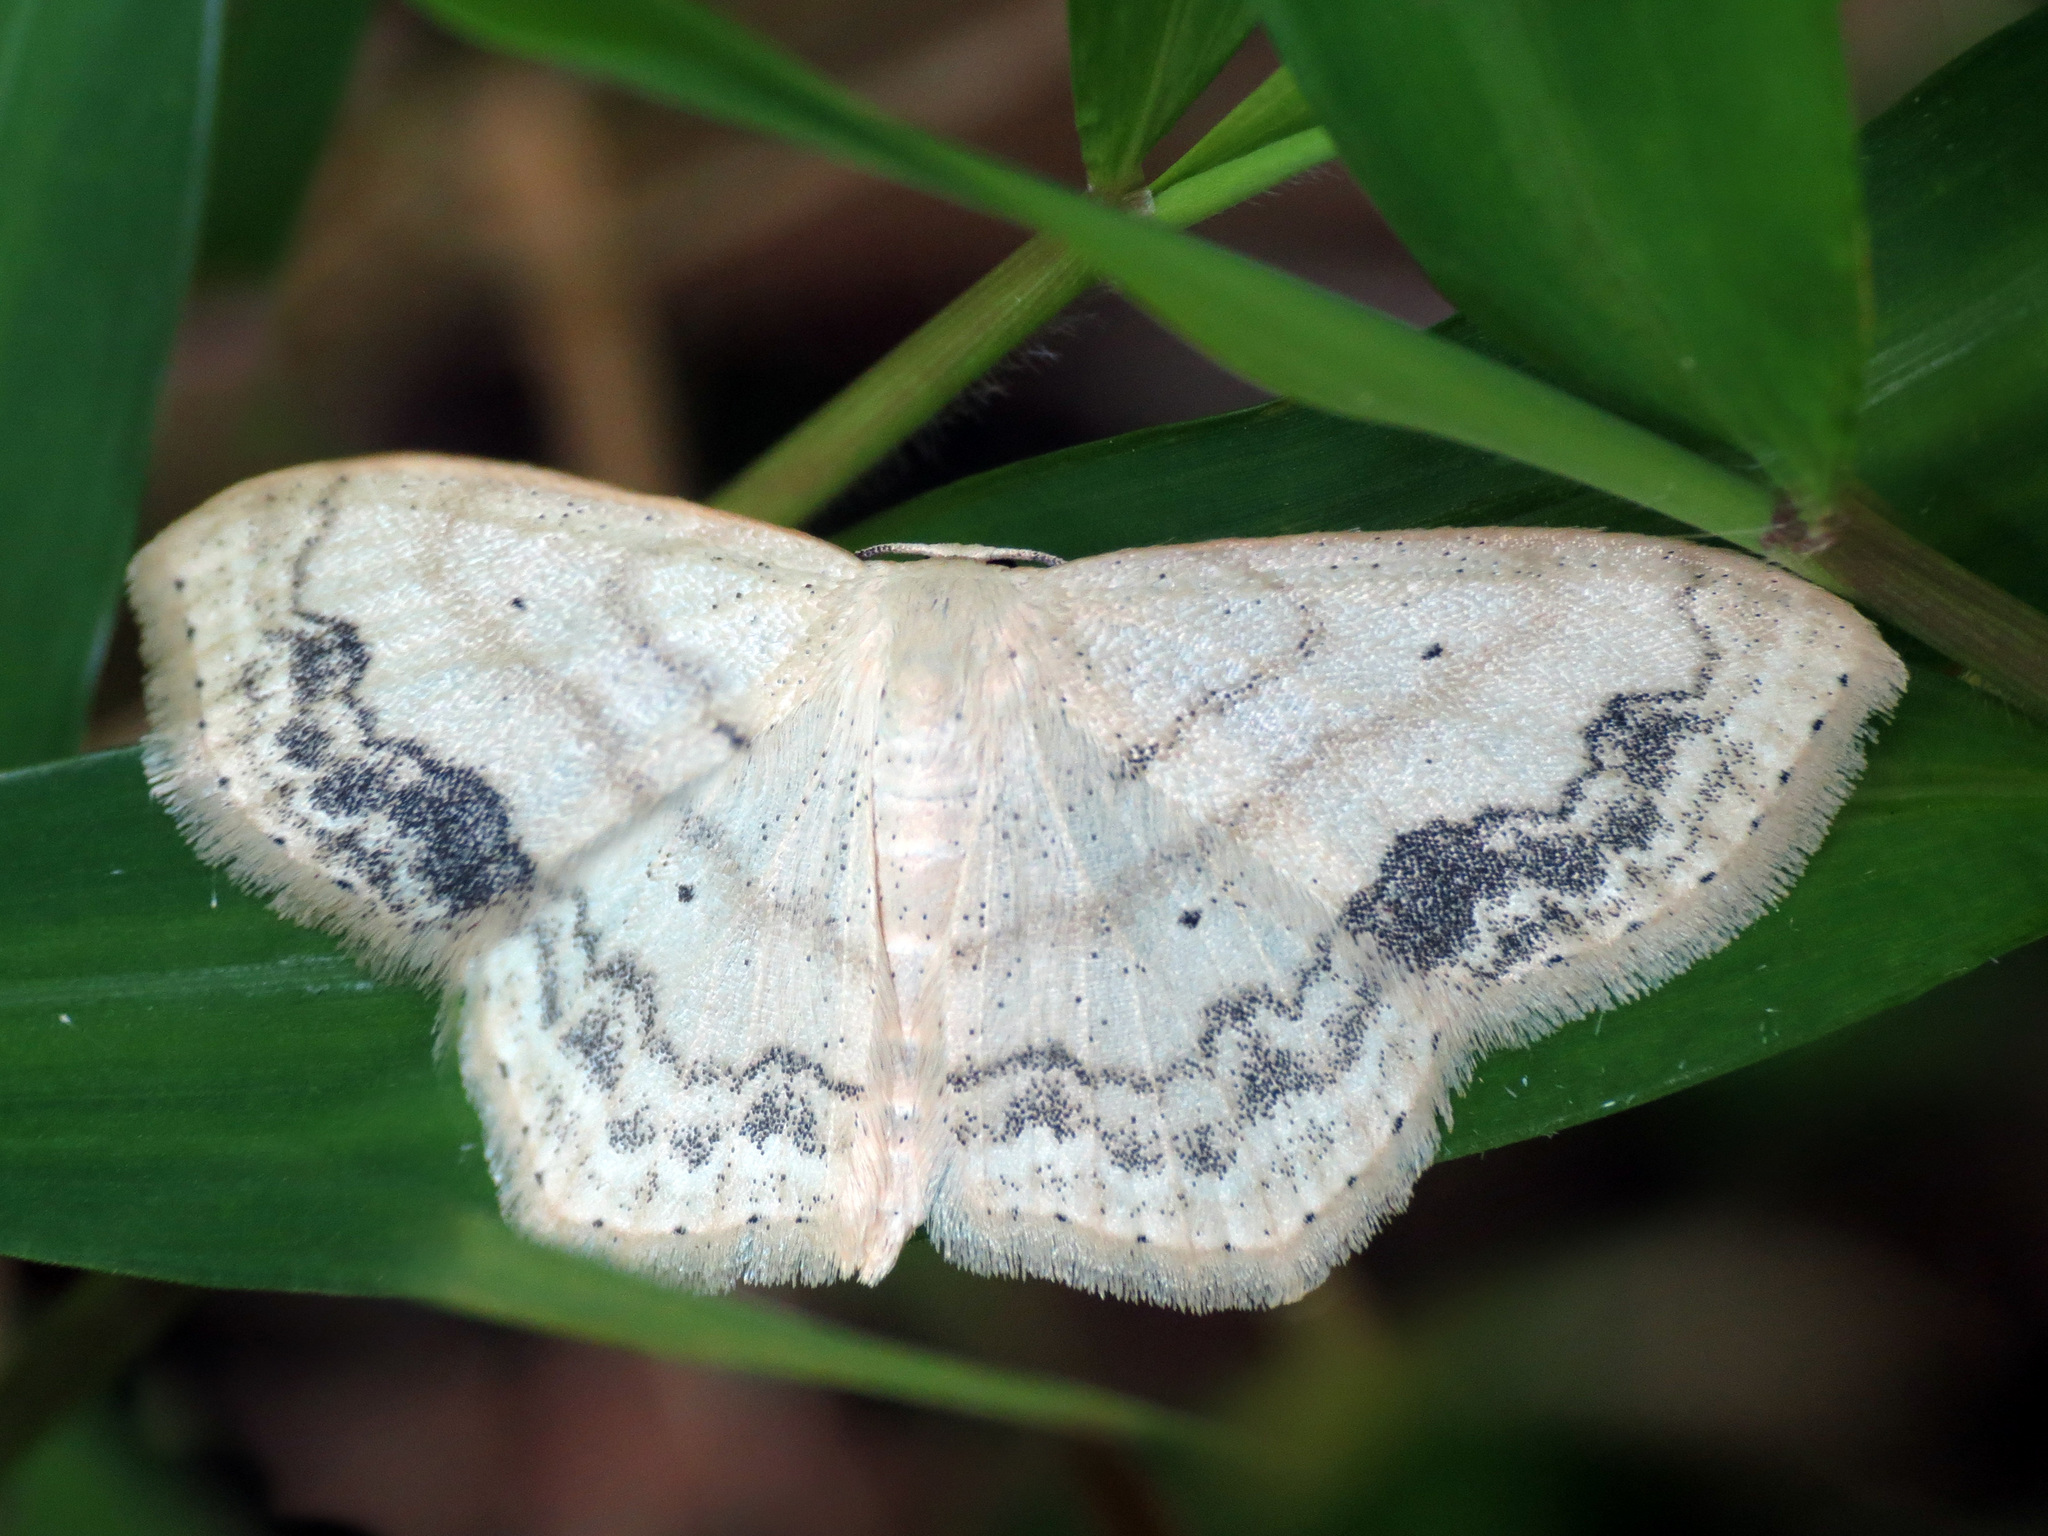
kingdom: Animalia
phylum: Arthropoda
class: Insecta
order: Lepidoptera
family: Geometridae
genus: Scopula
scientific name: Scopula limboundata
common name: Large lace border
